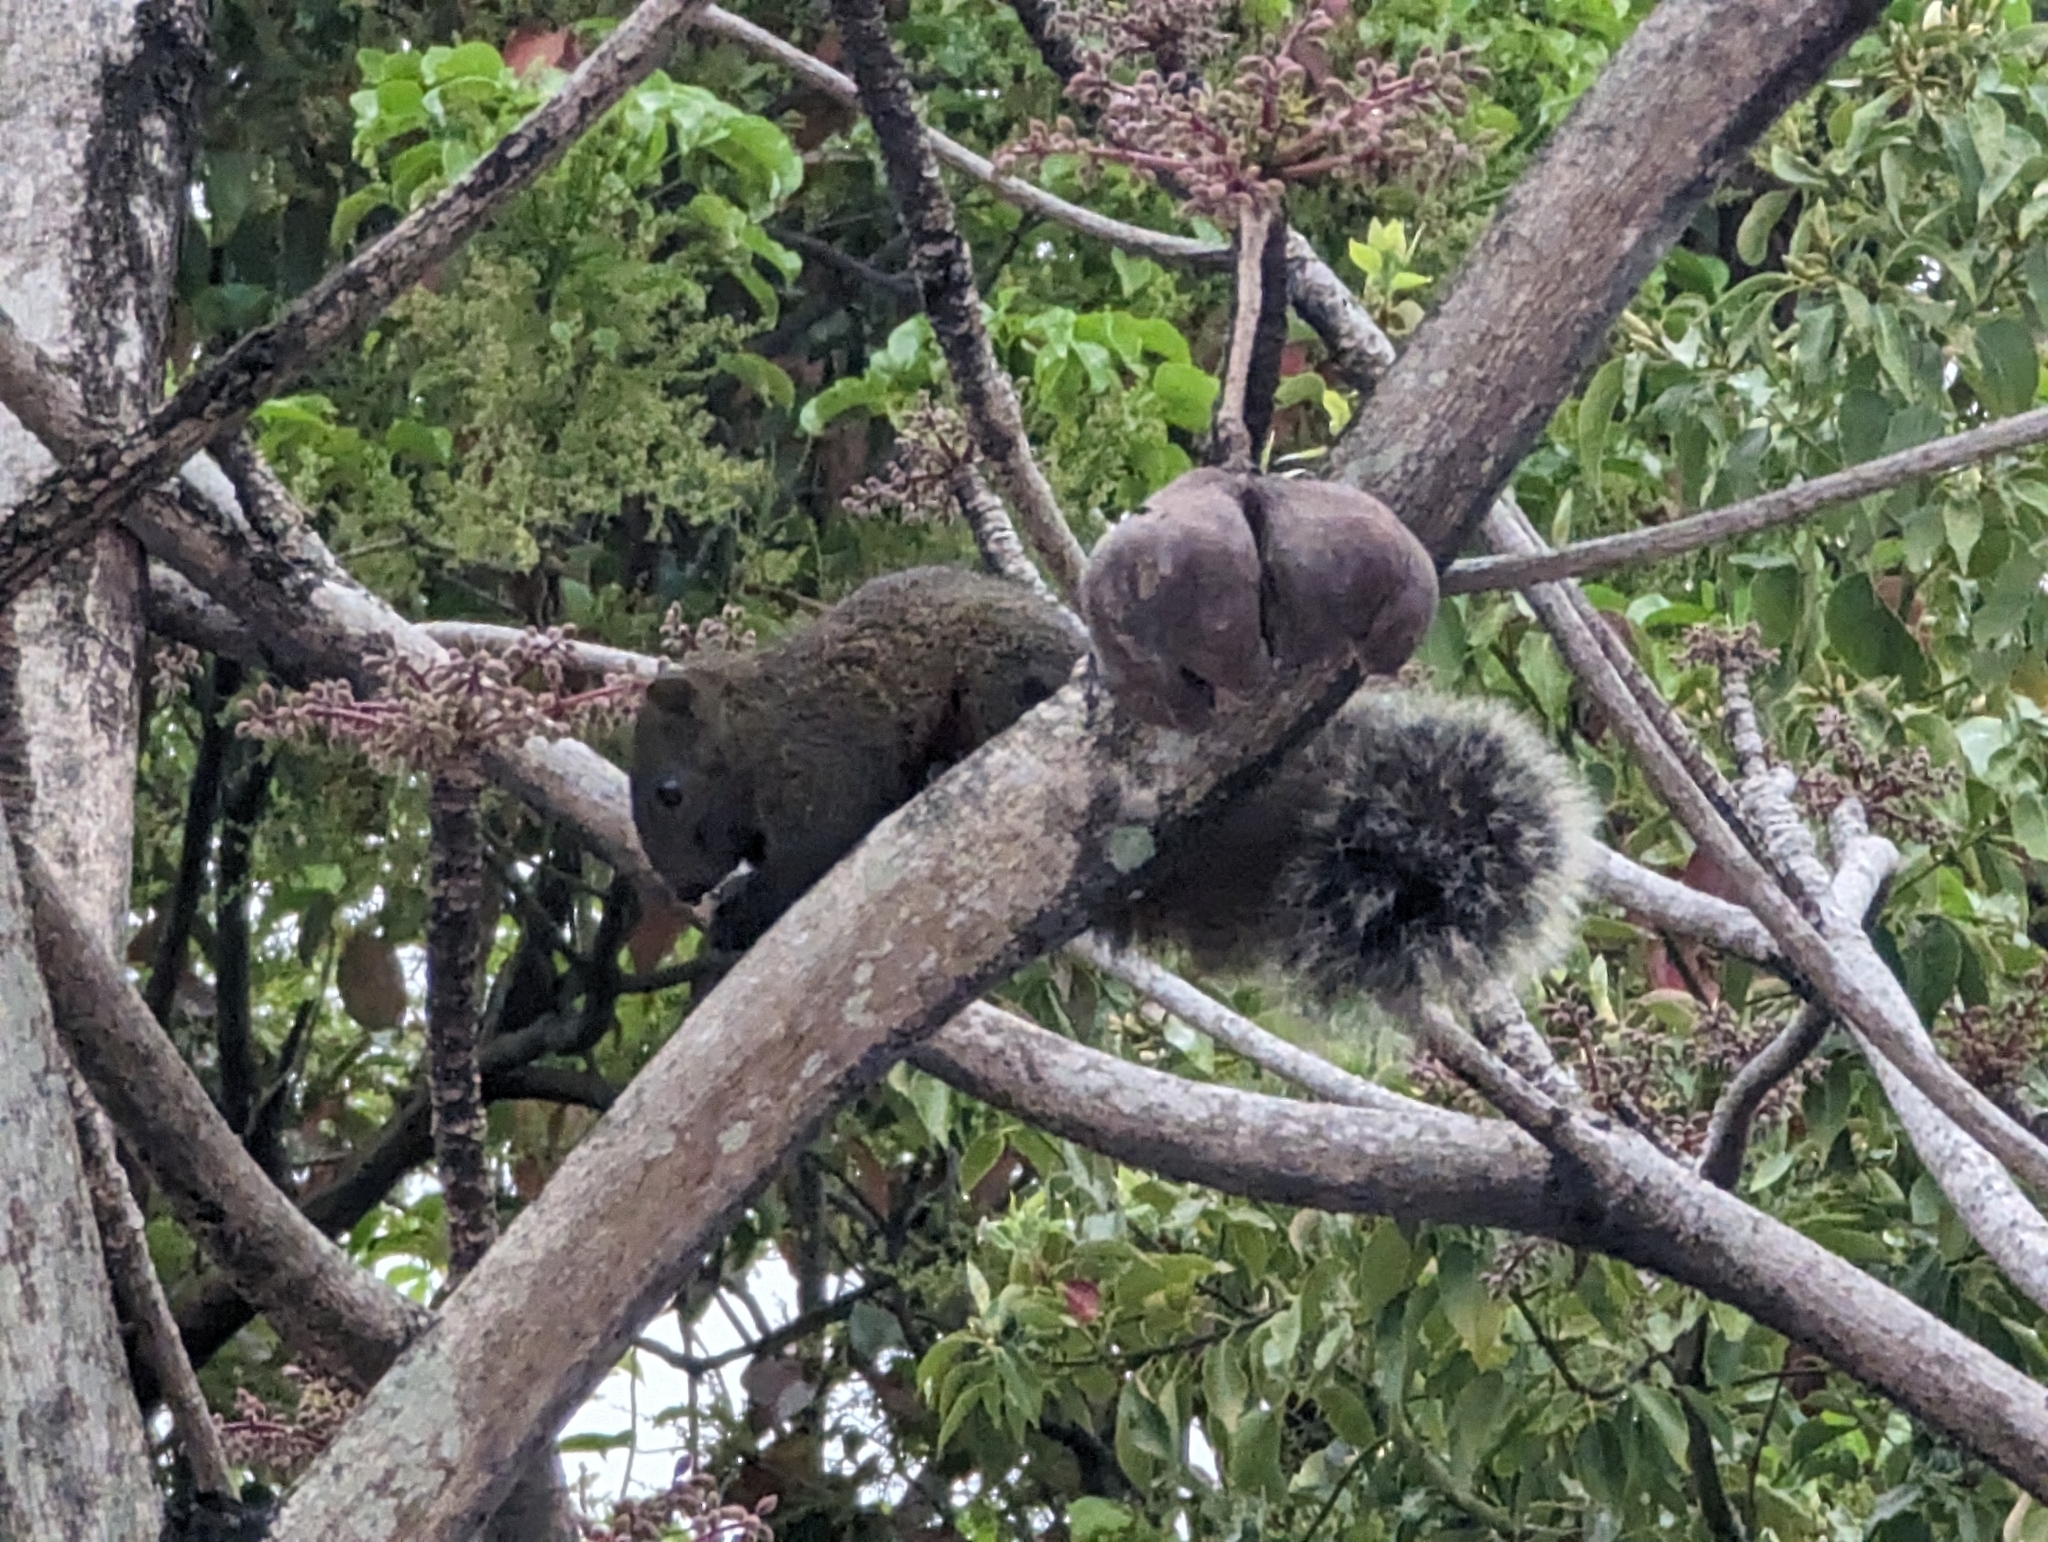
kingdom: Animalia
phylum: Chordata
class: Mammalia
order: Rodentia
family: Sciuridae
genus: Callosciurus
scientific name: Callosciurus erythraeus
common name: Pallas's squirrel
